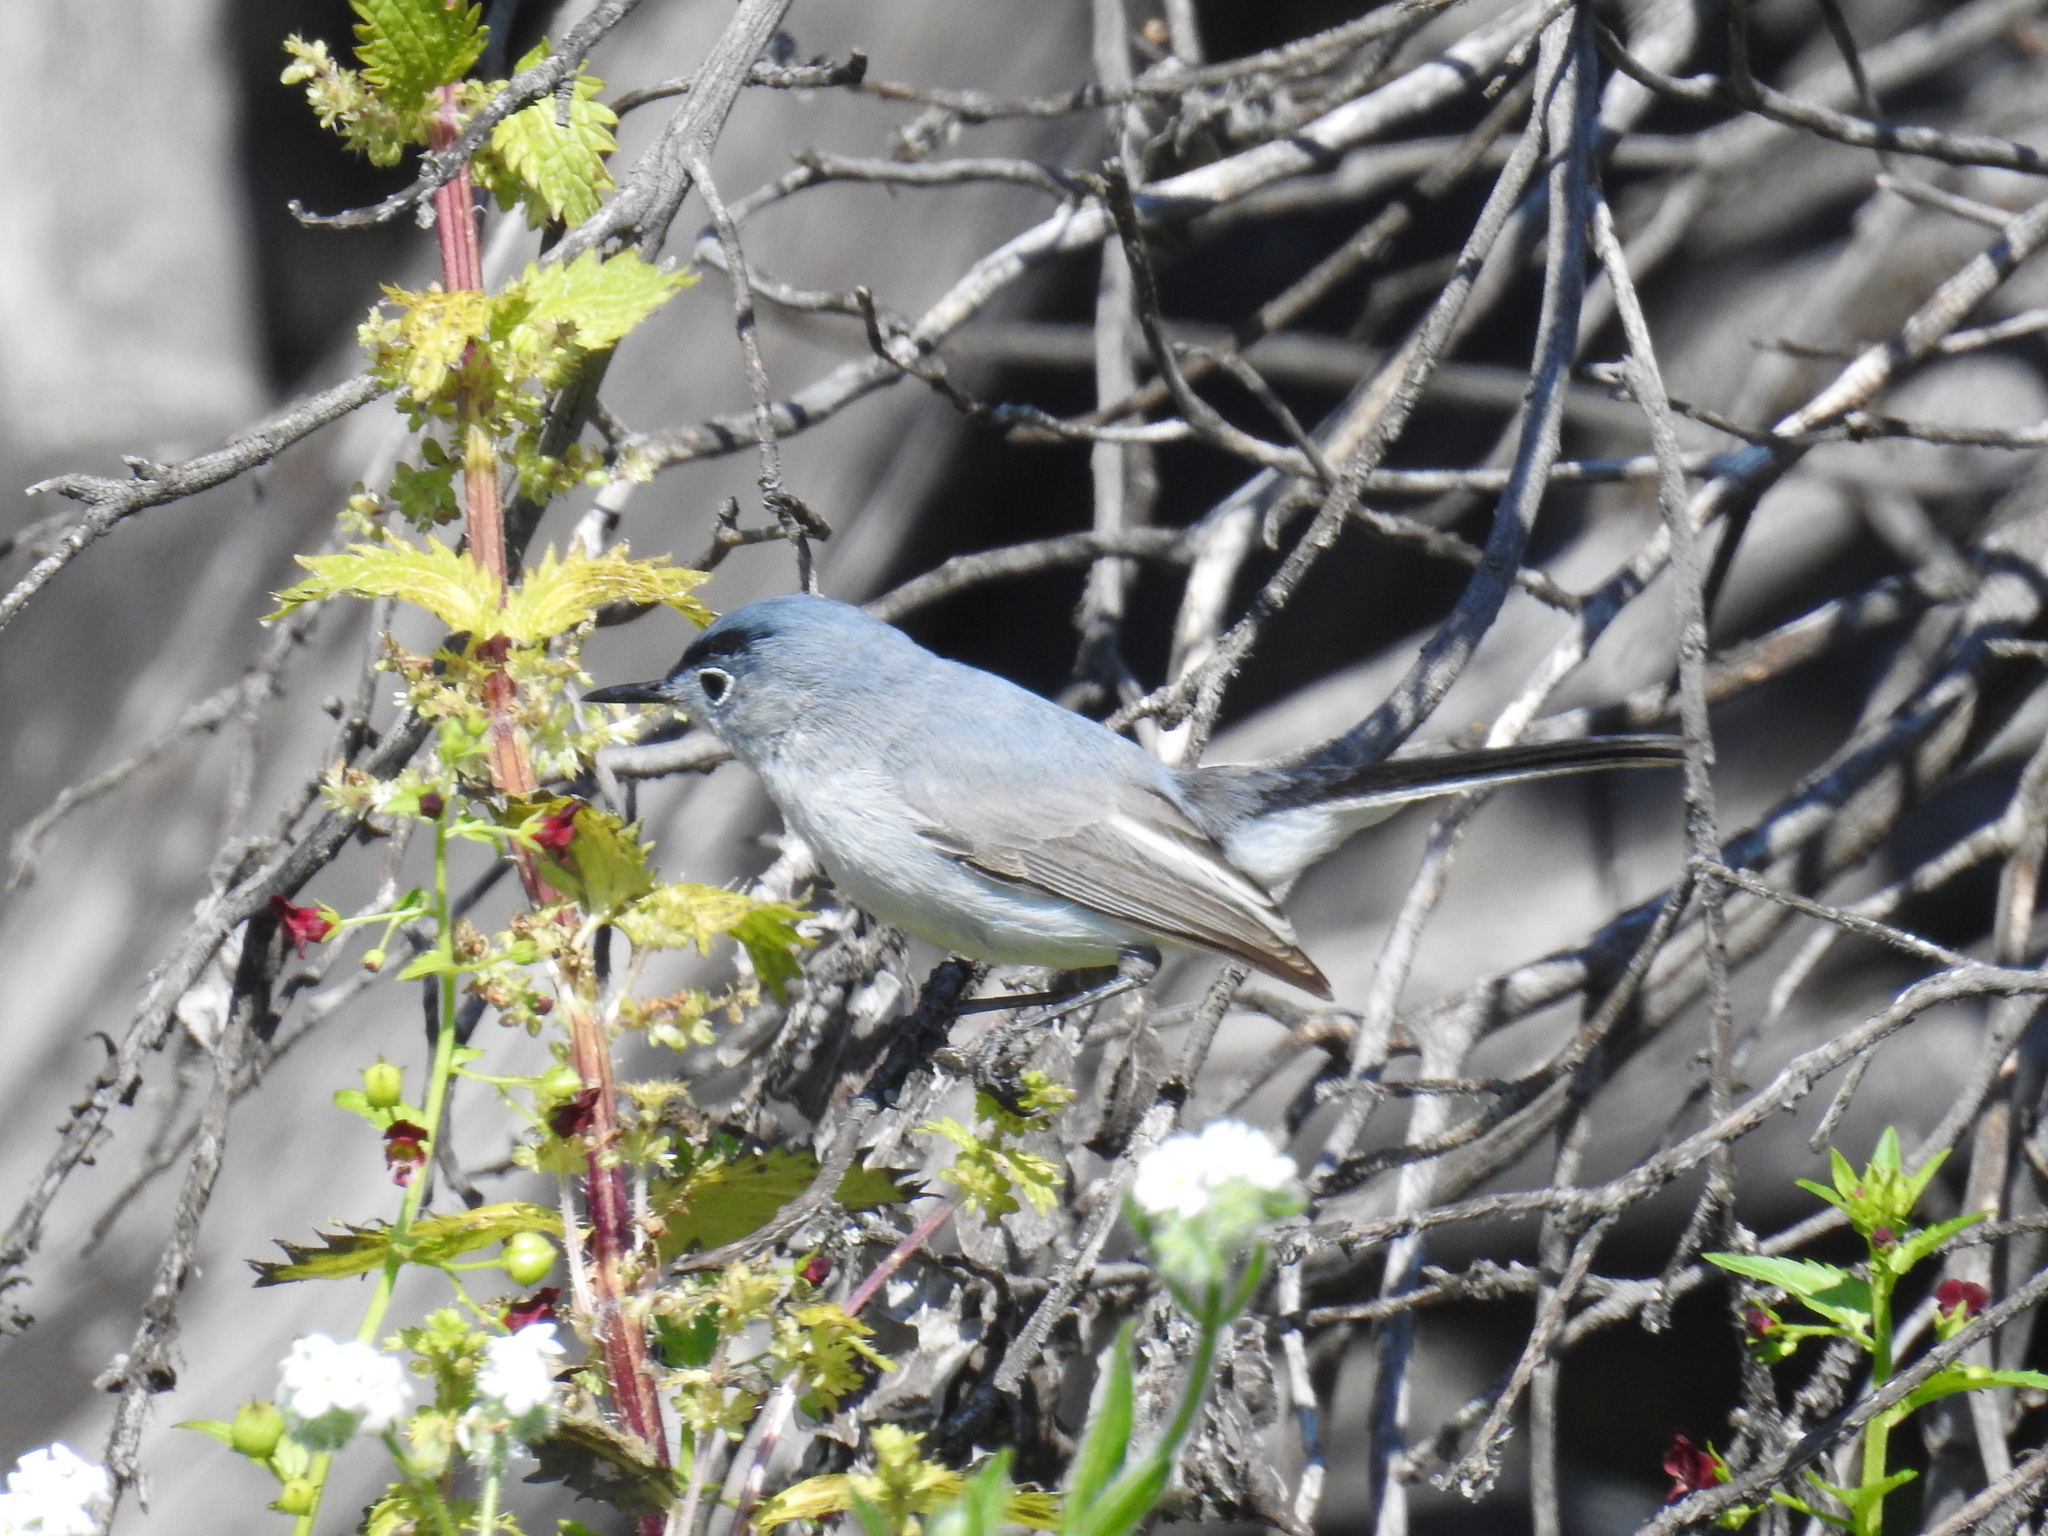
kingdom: Animalia
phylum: Chordata
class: Aves
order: Passeriformes
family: Polioptilidae
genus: Polioptila
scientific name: Polioptila caerulea
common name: Blue-gray gnatcatcher
